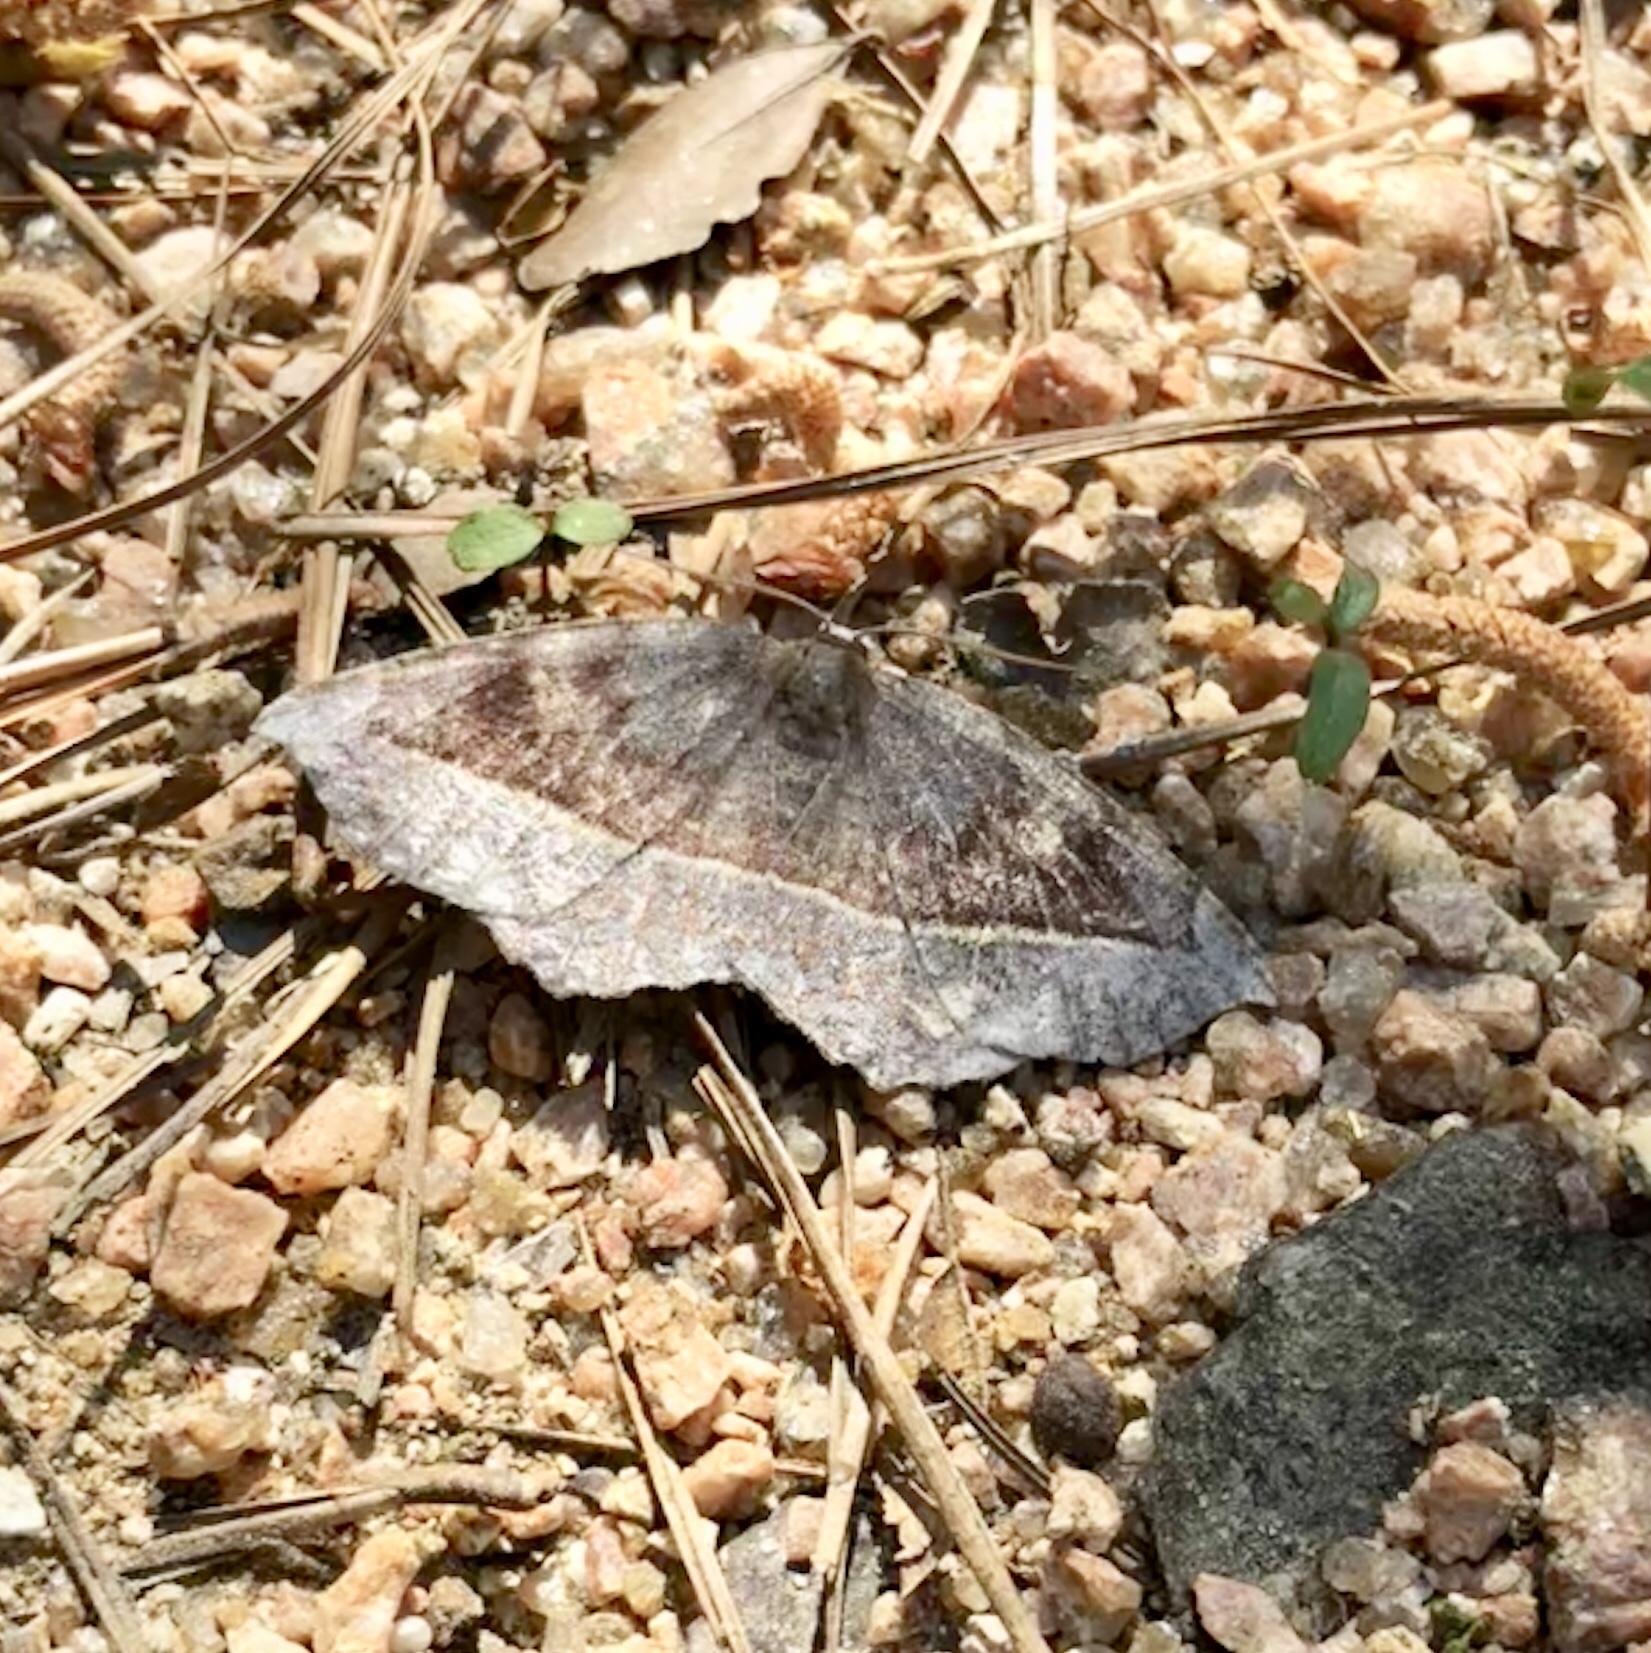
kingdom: Animalia
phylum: Arthropoda
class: Insecta
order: Lepidoptera
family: Geometridae
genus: Eutrapela
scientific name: Eutrapela clemataria
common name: Curved-toothed geometer
